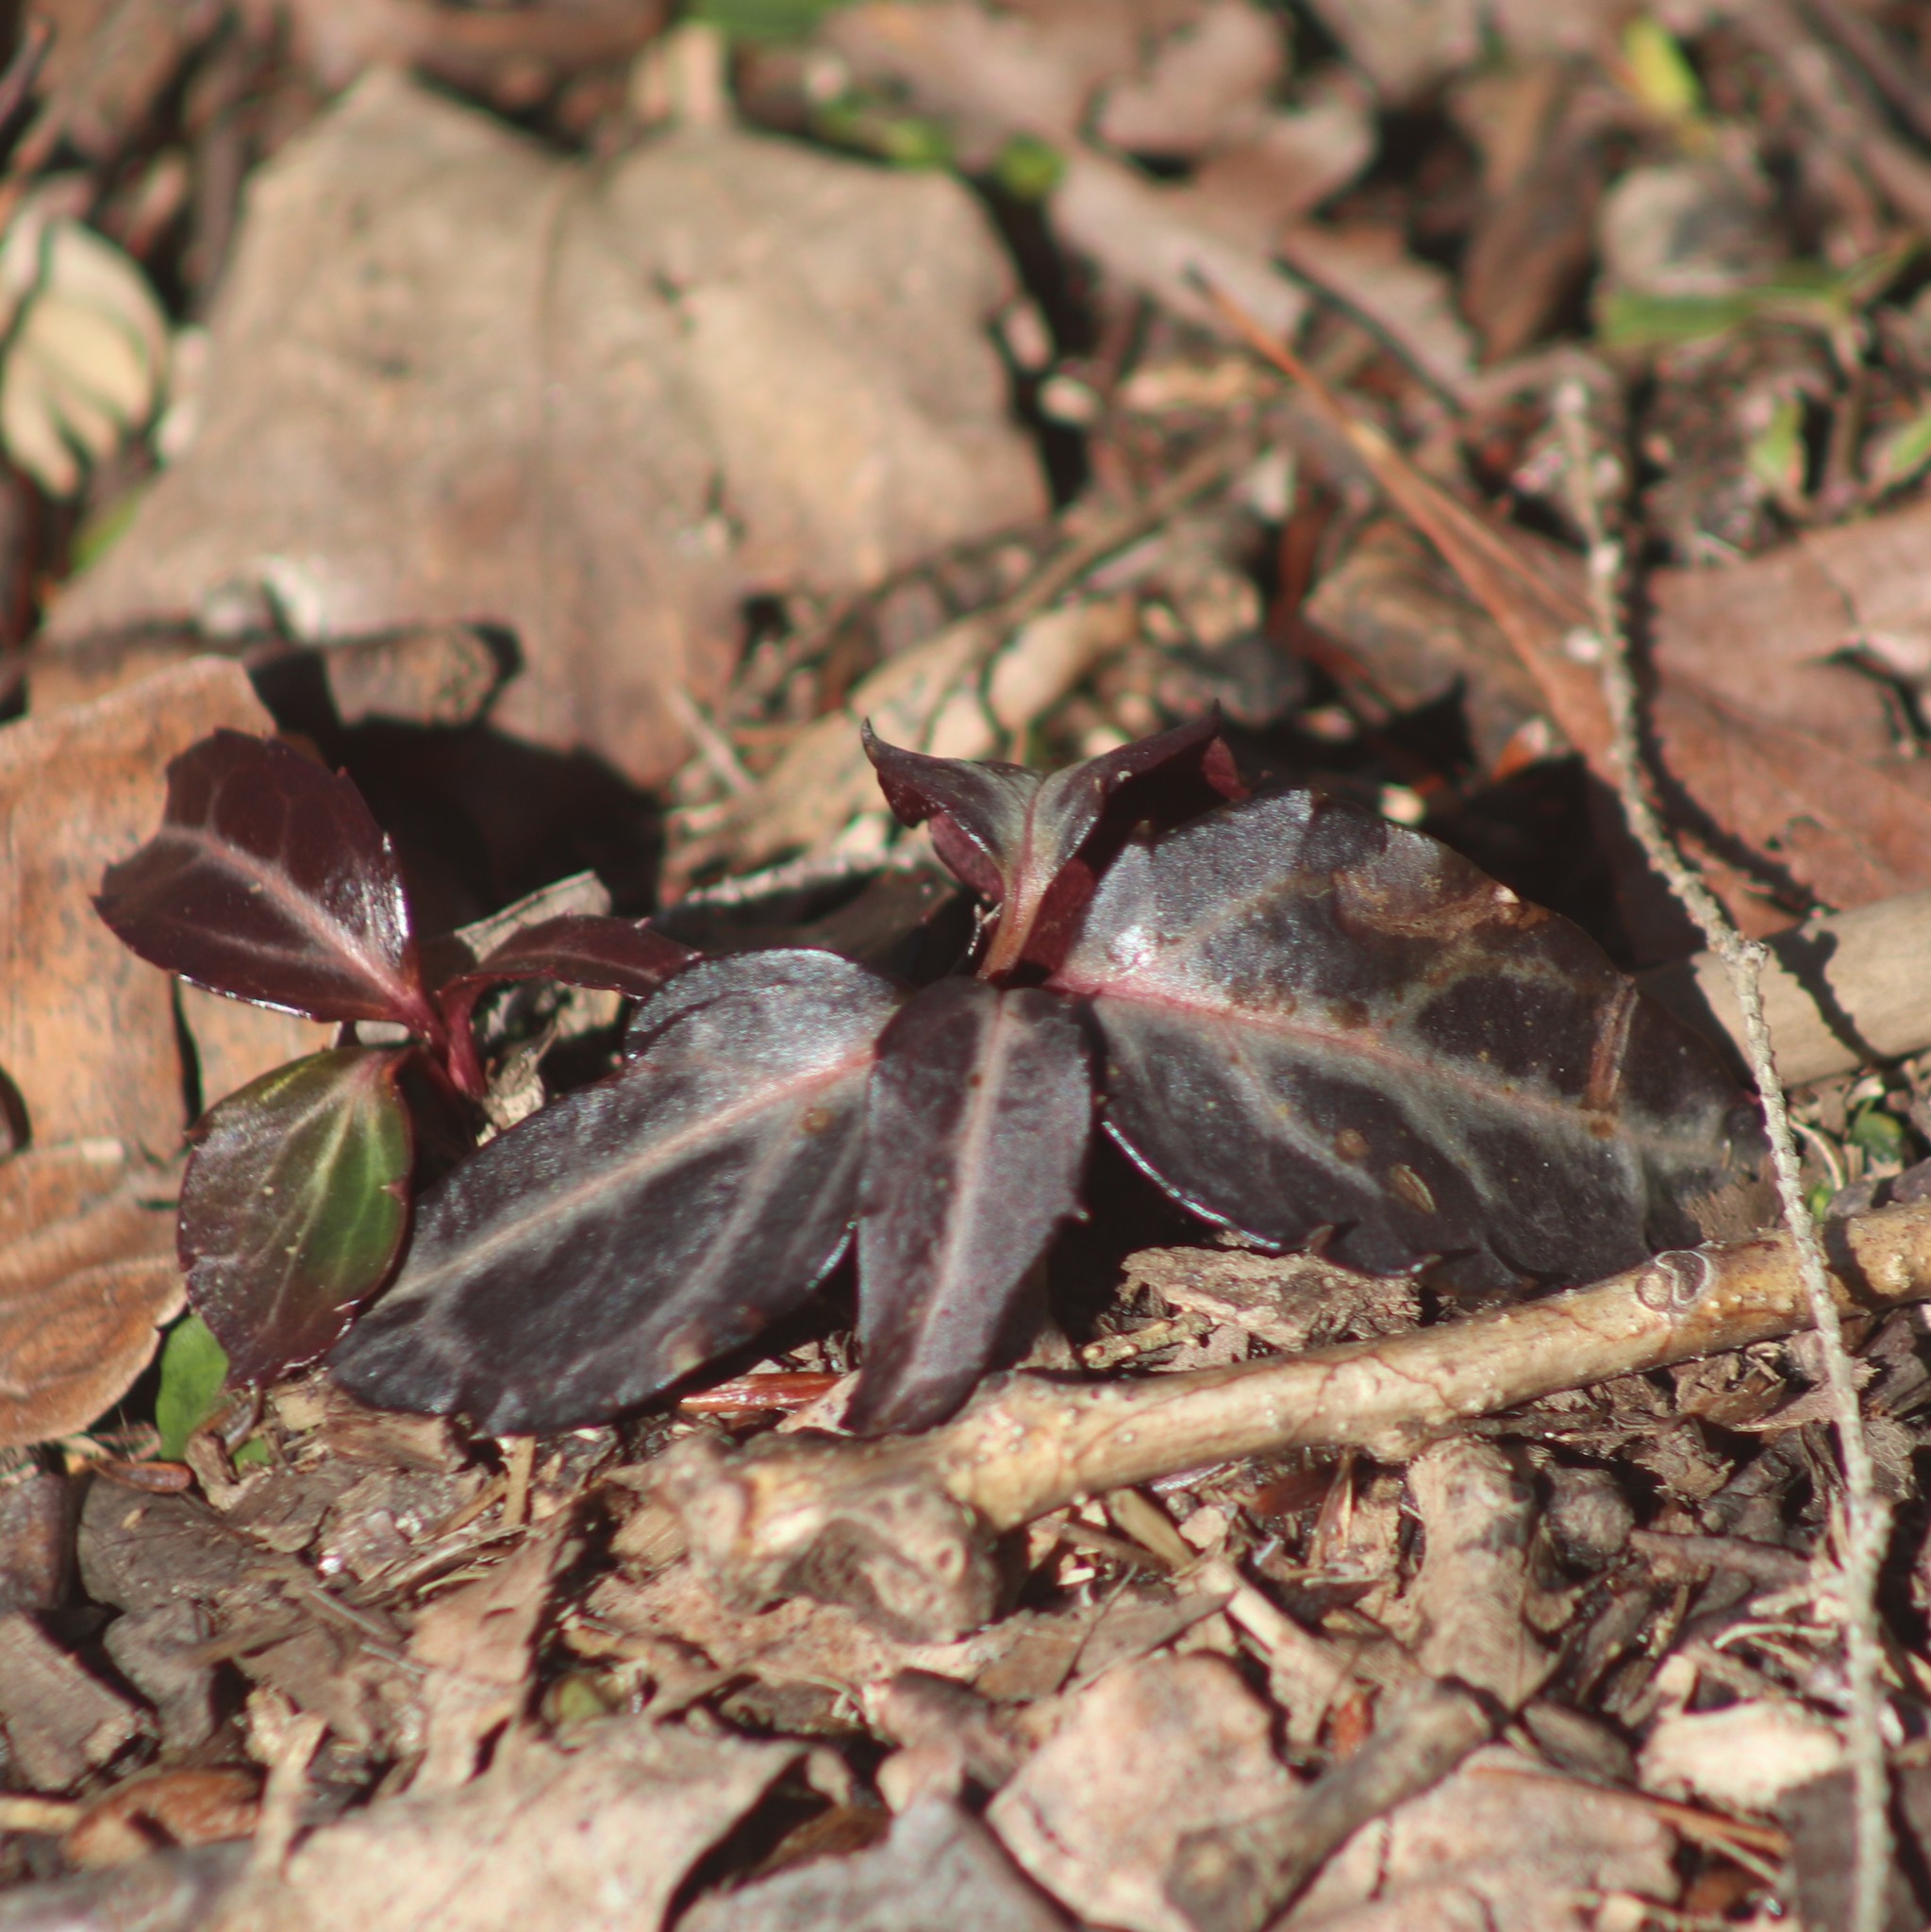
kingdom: Plantae
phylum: Tracheophyta
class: Magnoliopsida
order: Ericales
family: Ericaceae
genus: Chimaphila
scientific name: Chimaphila maculata
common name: Spotted pipsissewa
